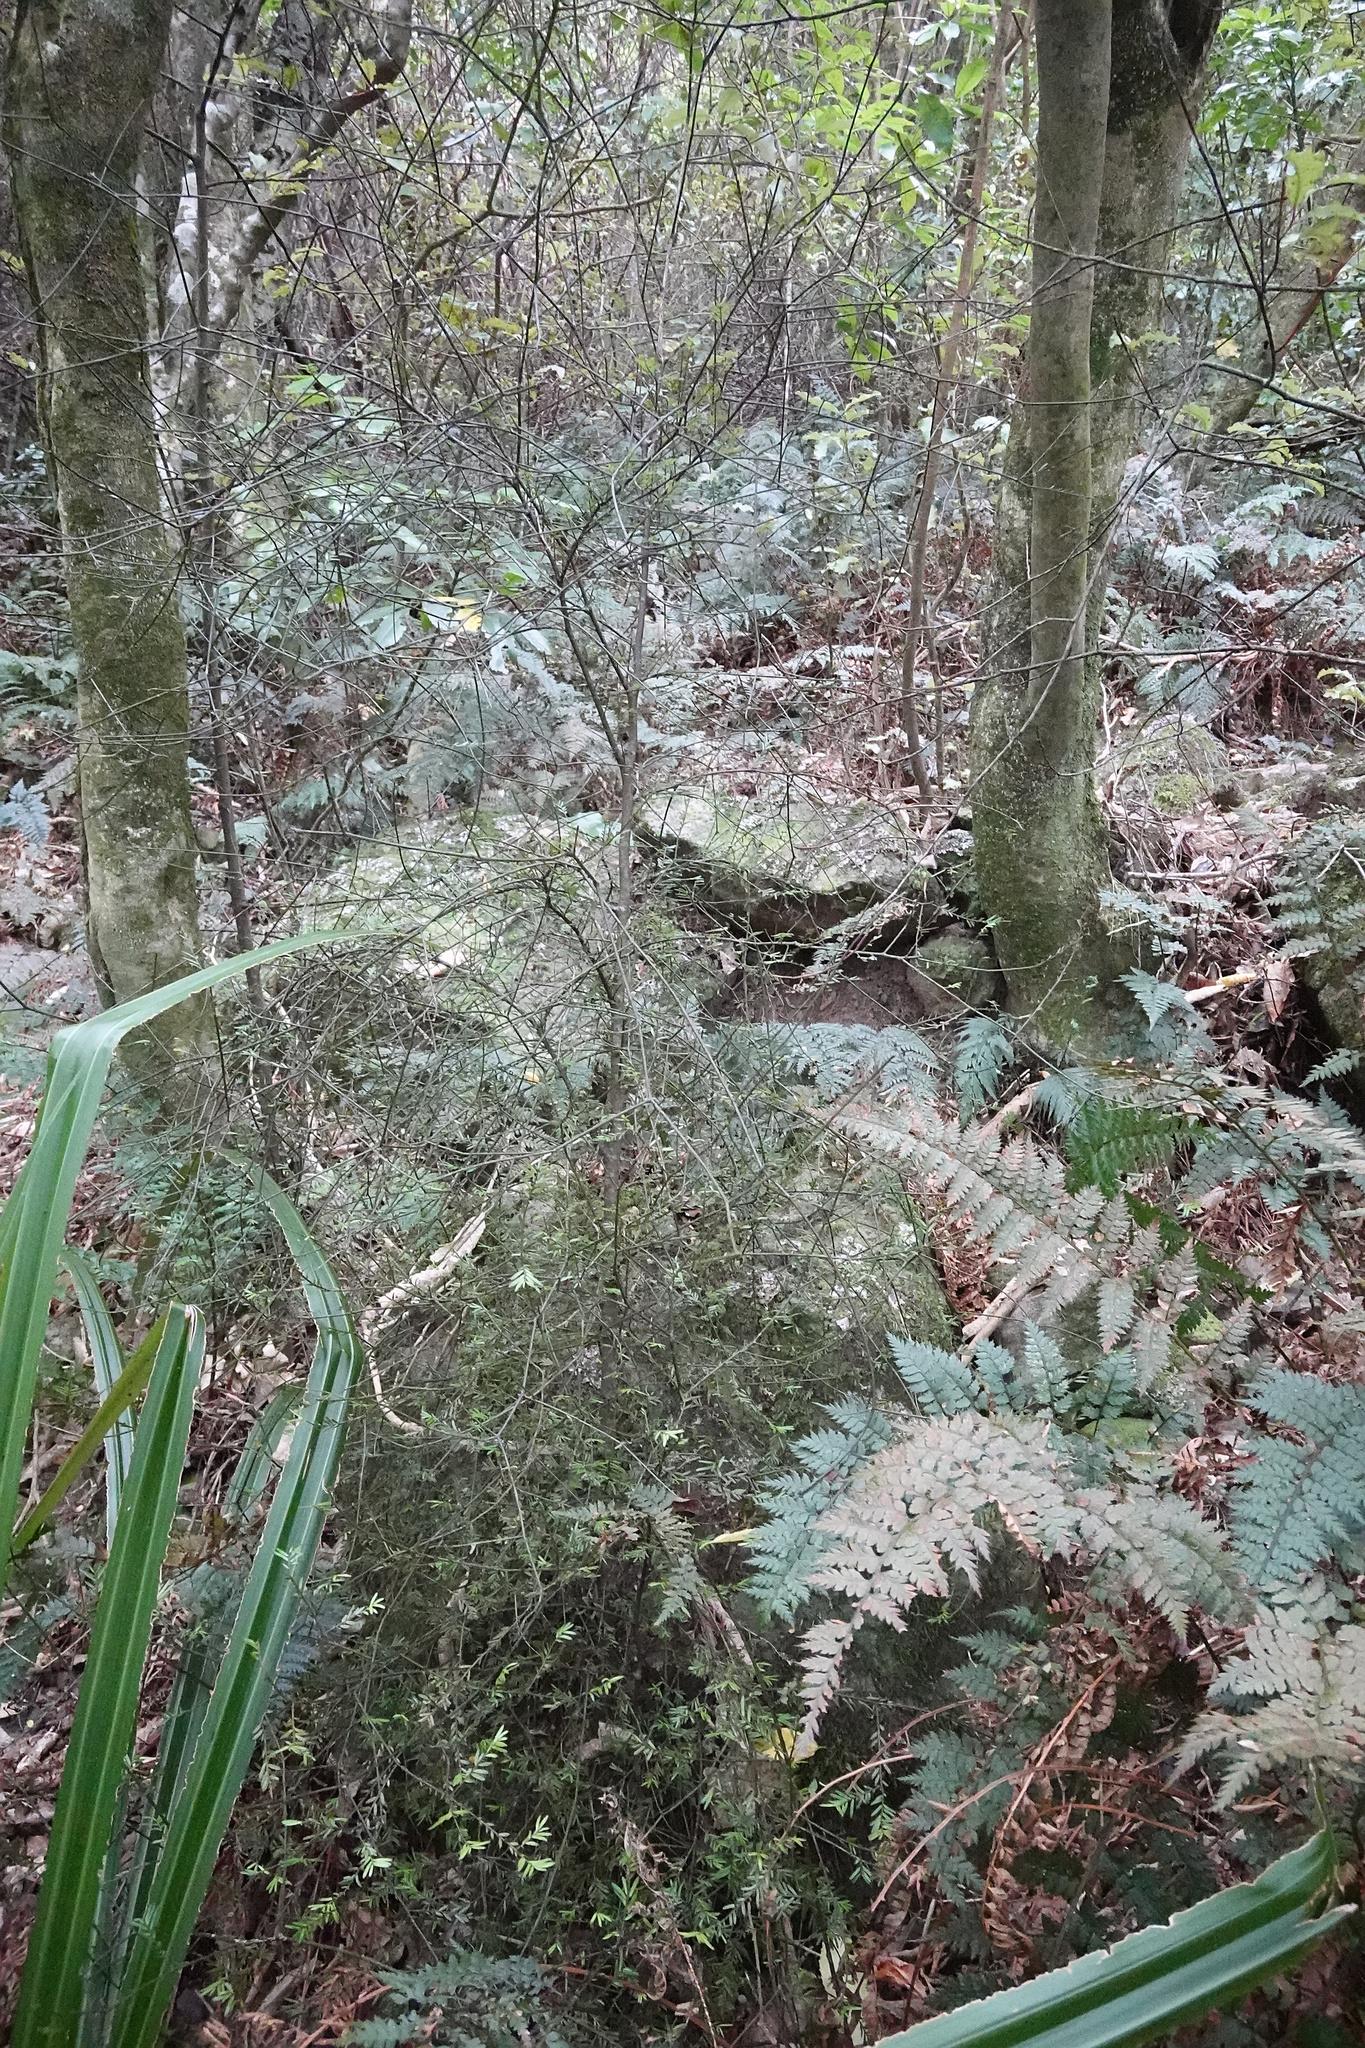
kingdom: Plantae
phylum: Tracheophyta
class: Pinopsida
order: Pinales
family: Podocarpaceae
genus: Prumnopitys
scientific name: Prumnopitys taxifolia
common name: Matai
